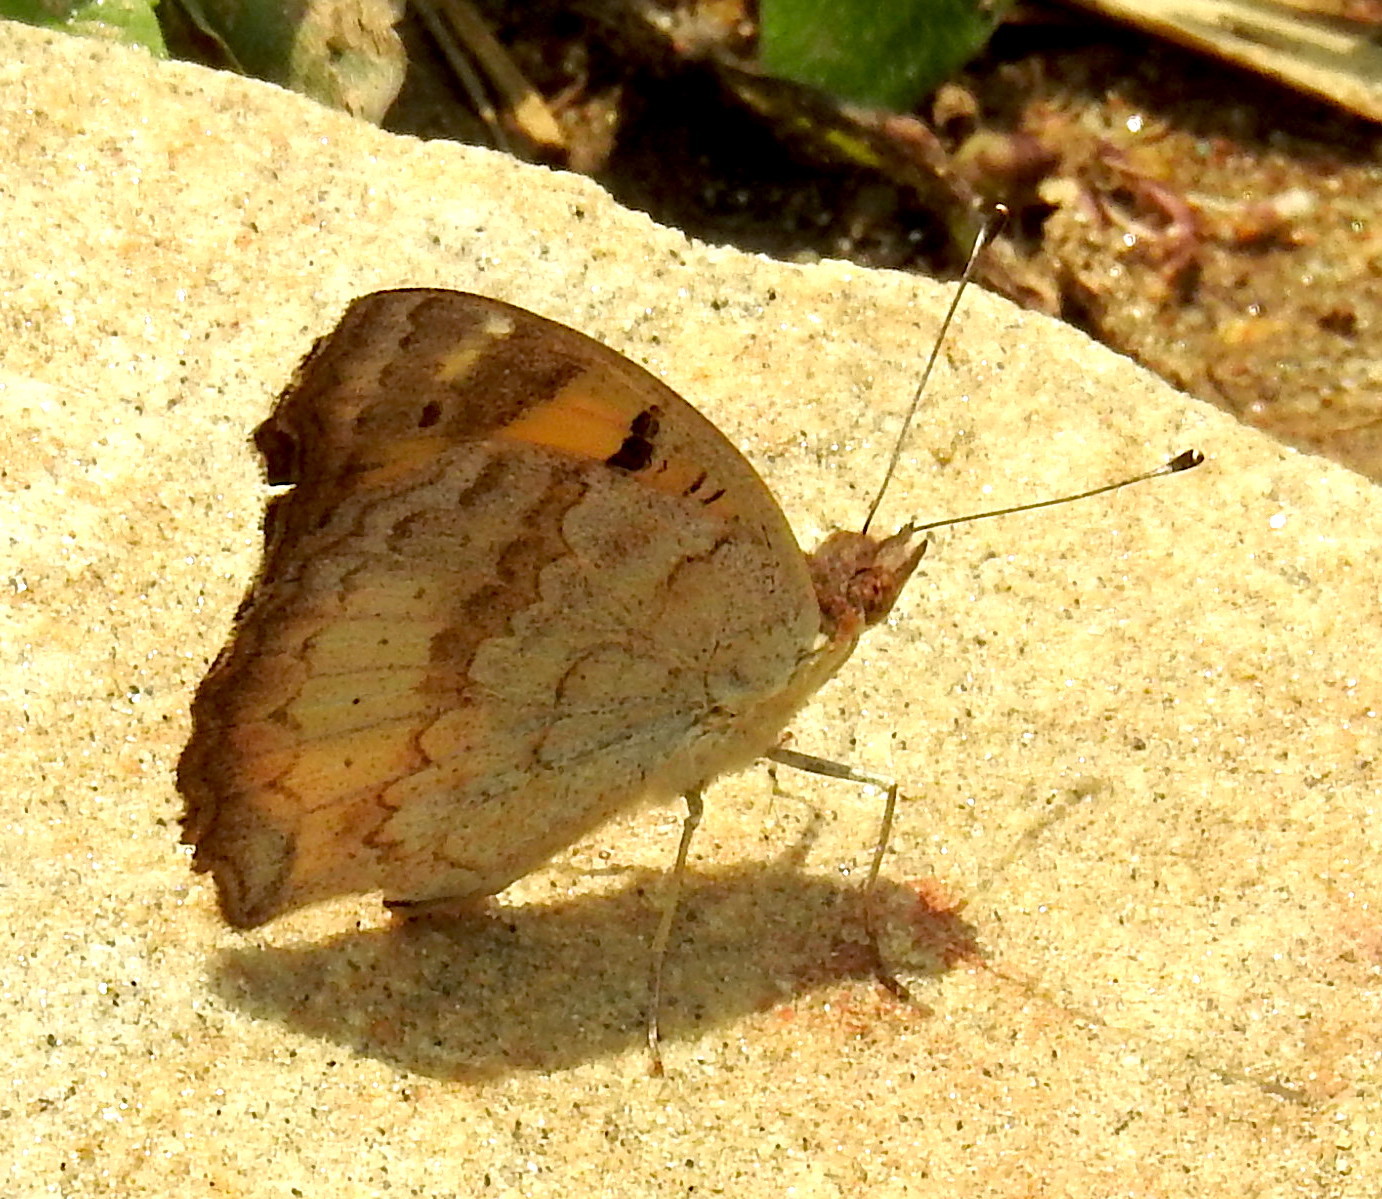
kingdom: Animalia
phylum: Arthropoda
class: Insecta
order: Lepidoptera
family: Nymphalidae
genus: Junonia
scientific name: Junonia hierta
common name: Yellow pansy
